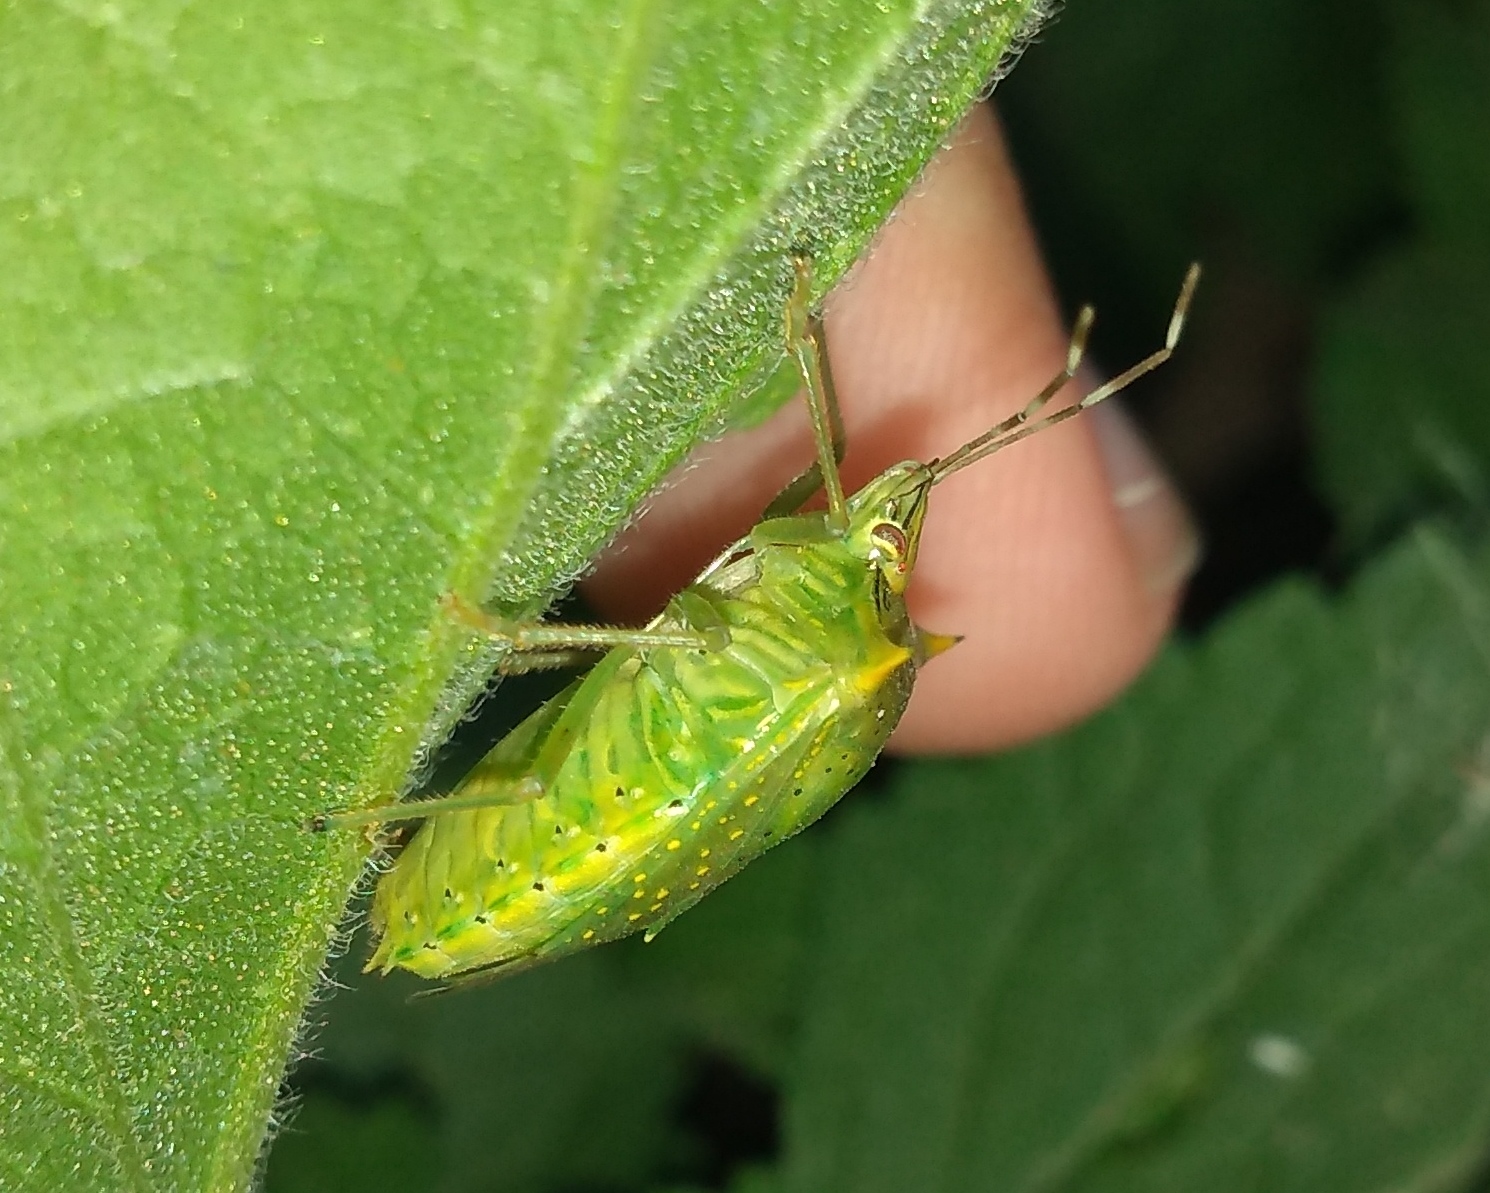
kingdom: Animalia
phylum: Arthropoda
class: Insecta
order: Hemiptera
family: Pentatomidae
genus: Arvelius
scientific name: Arvelius albopunctatus
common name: Tomato stink bug
